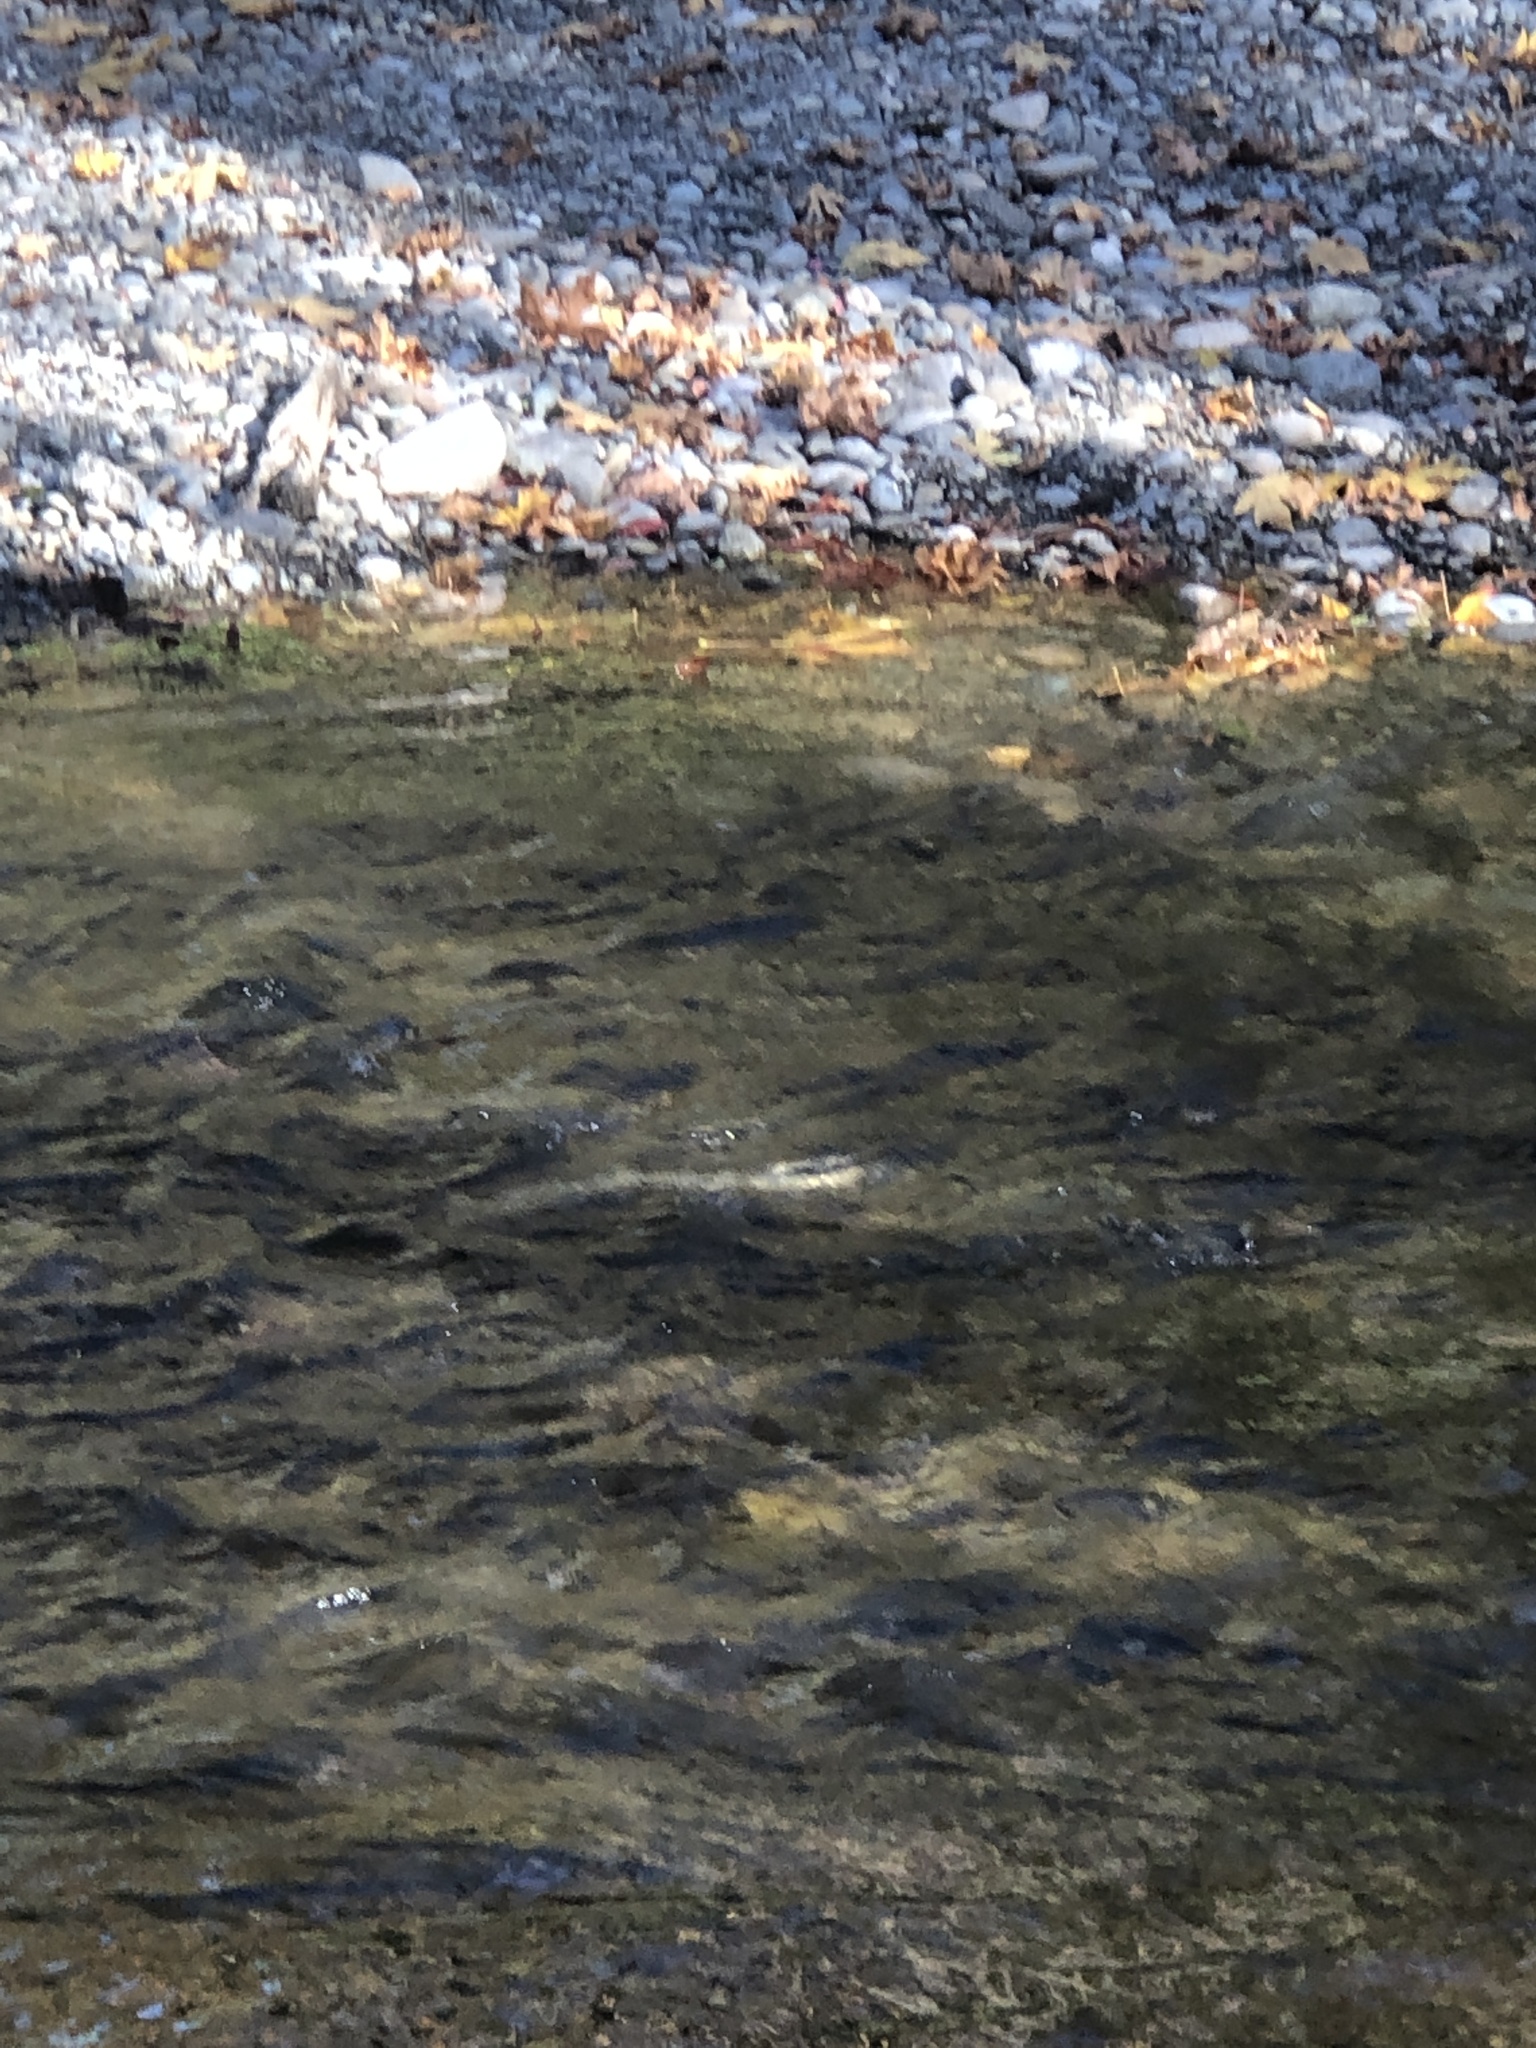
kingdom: Animalia
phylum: Chordata
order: Salmoniformes
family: Salmonidae
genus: Oncorhynchus
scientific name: Oncorhynchus keta
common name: Chum salmon
